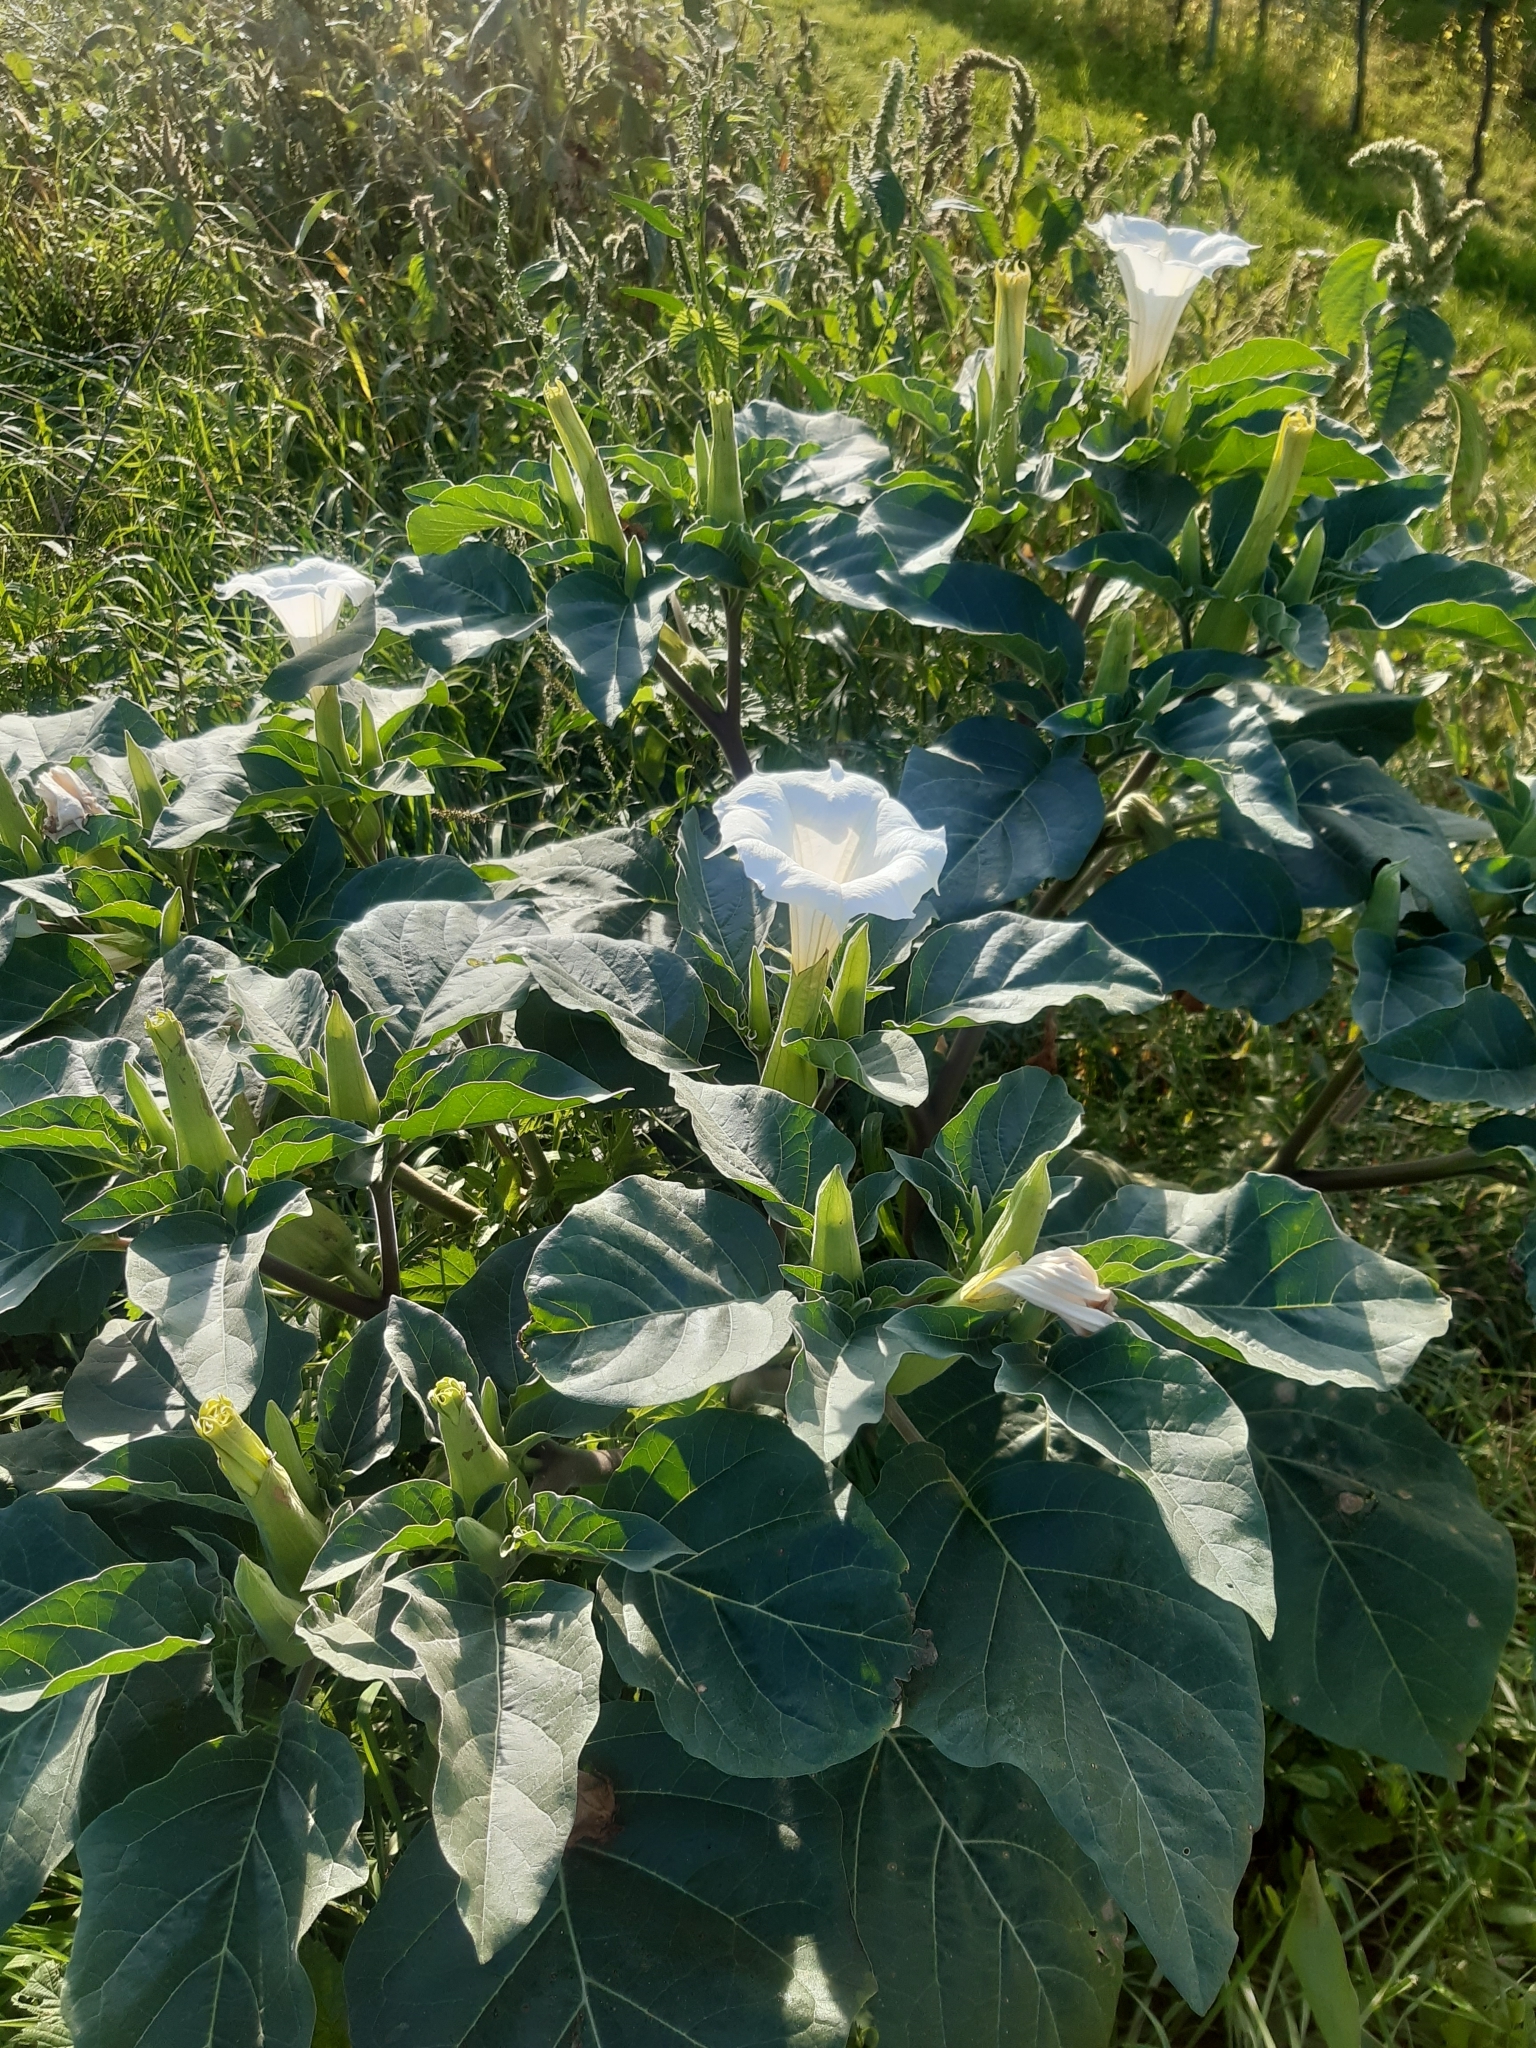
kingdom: Plantae
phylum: Tracheophyta
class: Magnoliopsida
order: Solanales
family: Solanaceae
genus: Datura
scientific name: Datura innoxia
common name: Downy thorn-apple
